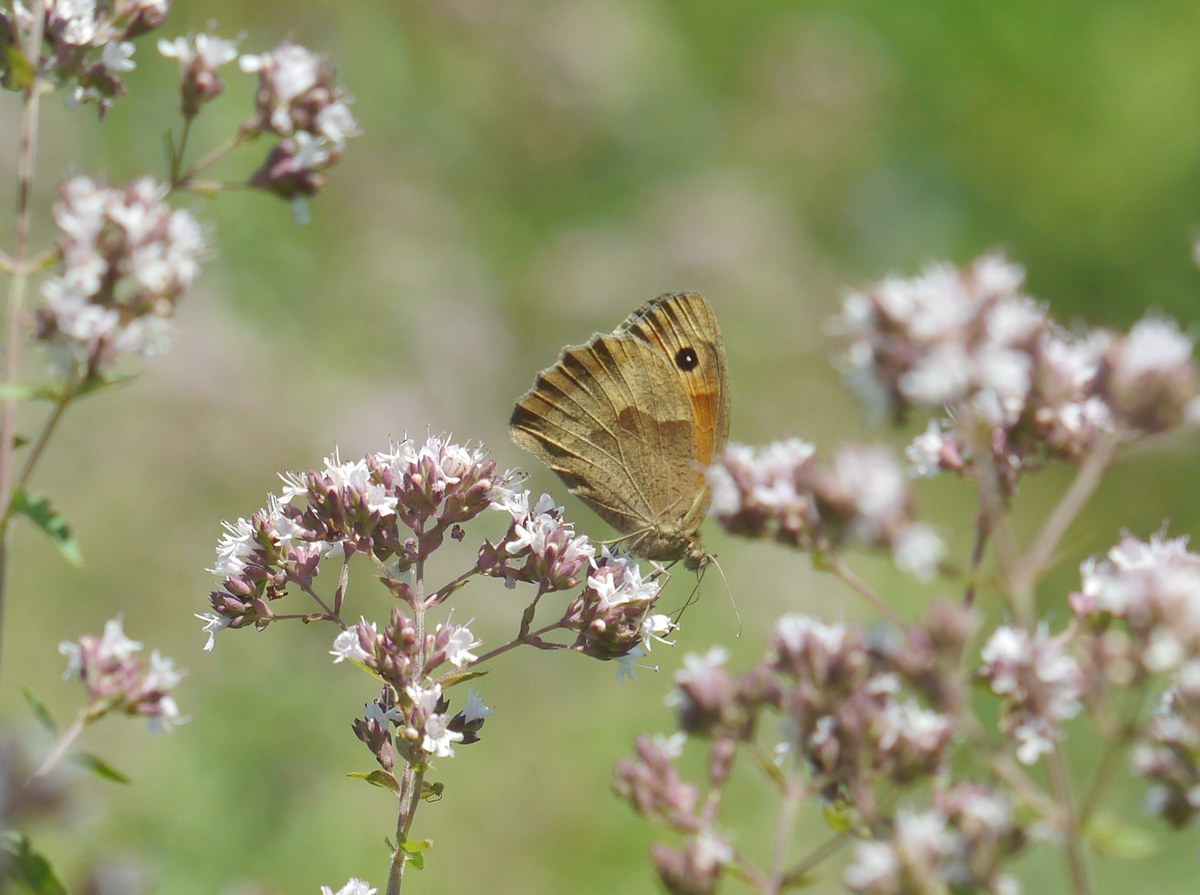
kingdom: Animalia
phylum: Arthropoda
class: Insecta
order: Lepidoptera
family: Nymphalidae
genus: Maniola
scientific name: Maniola jurtina
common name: Meadow brown
